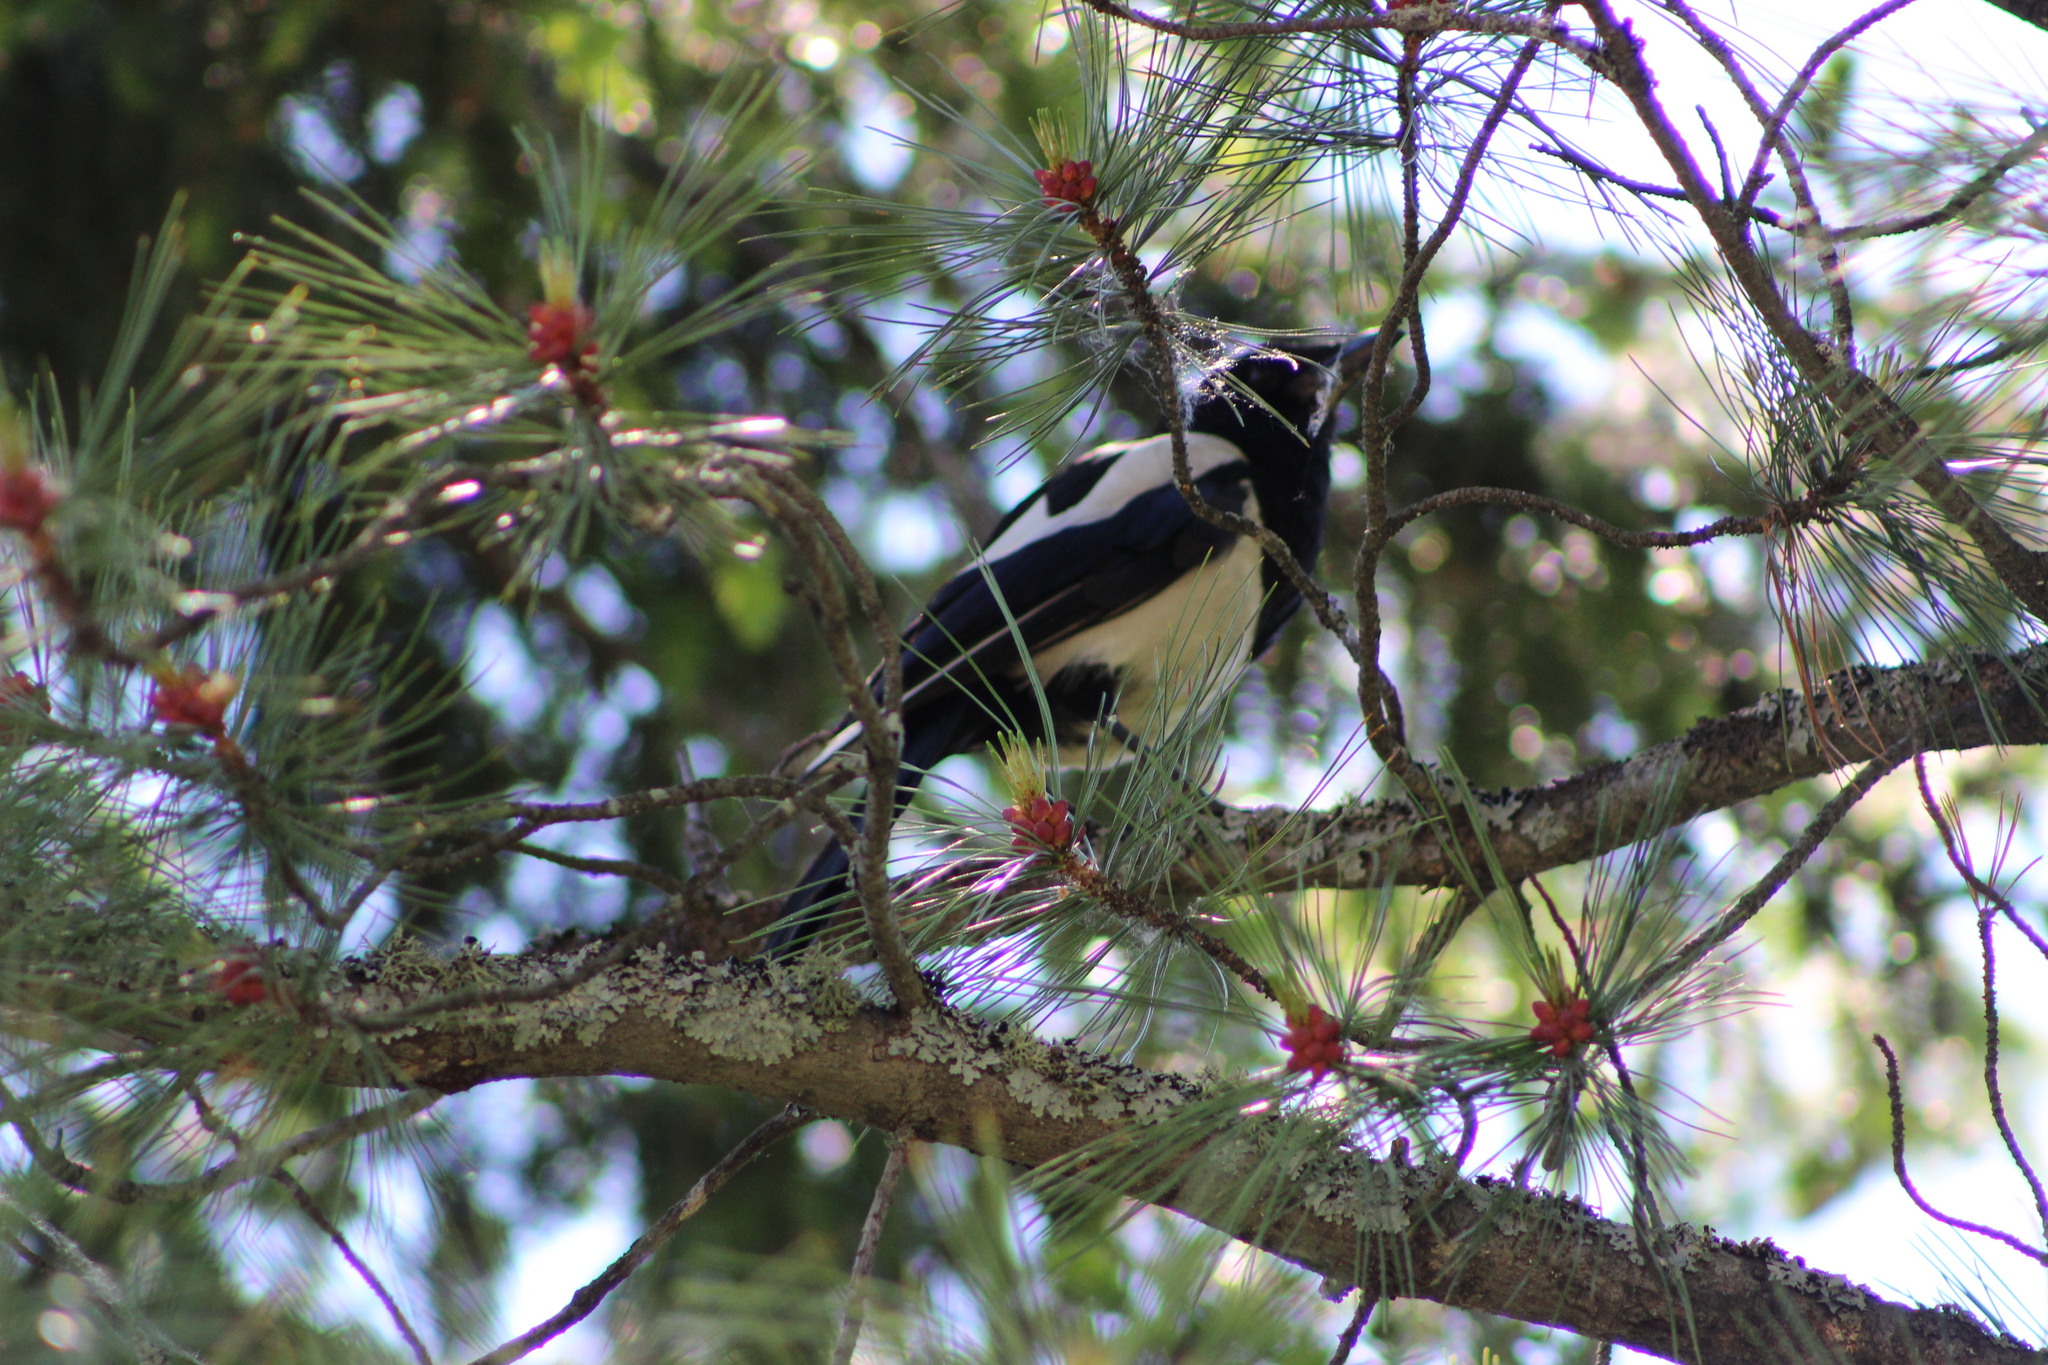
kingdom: Animalia
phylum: Chordata
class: Aves
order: Passeriformes
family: Corvidae
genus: Pica
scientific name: Pica pica
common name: Eurasian magpie
